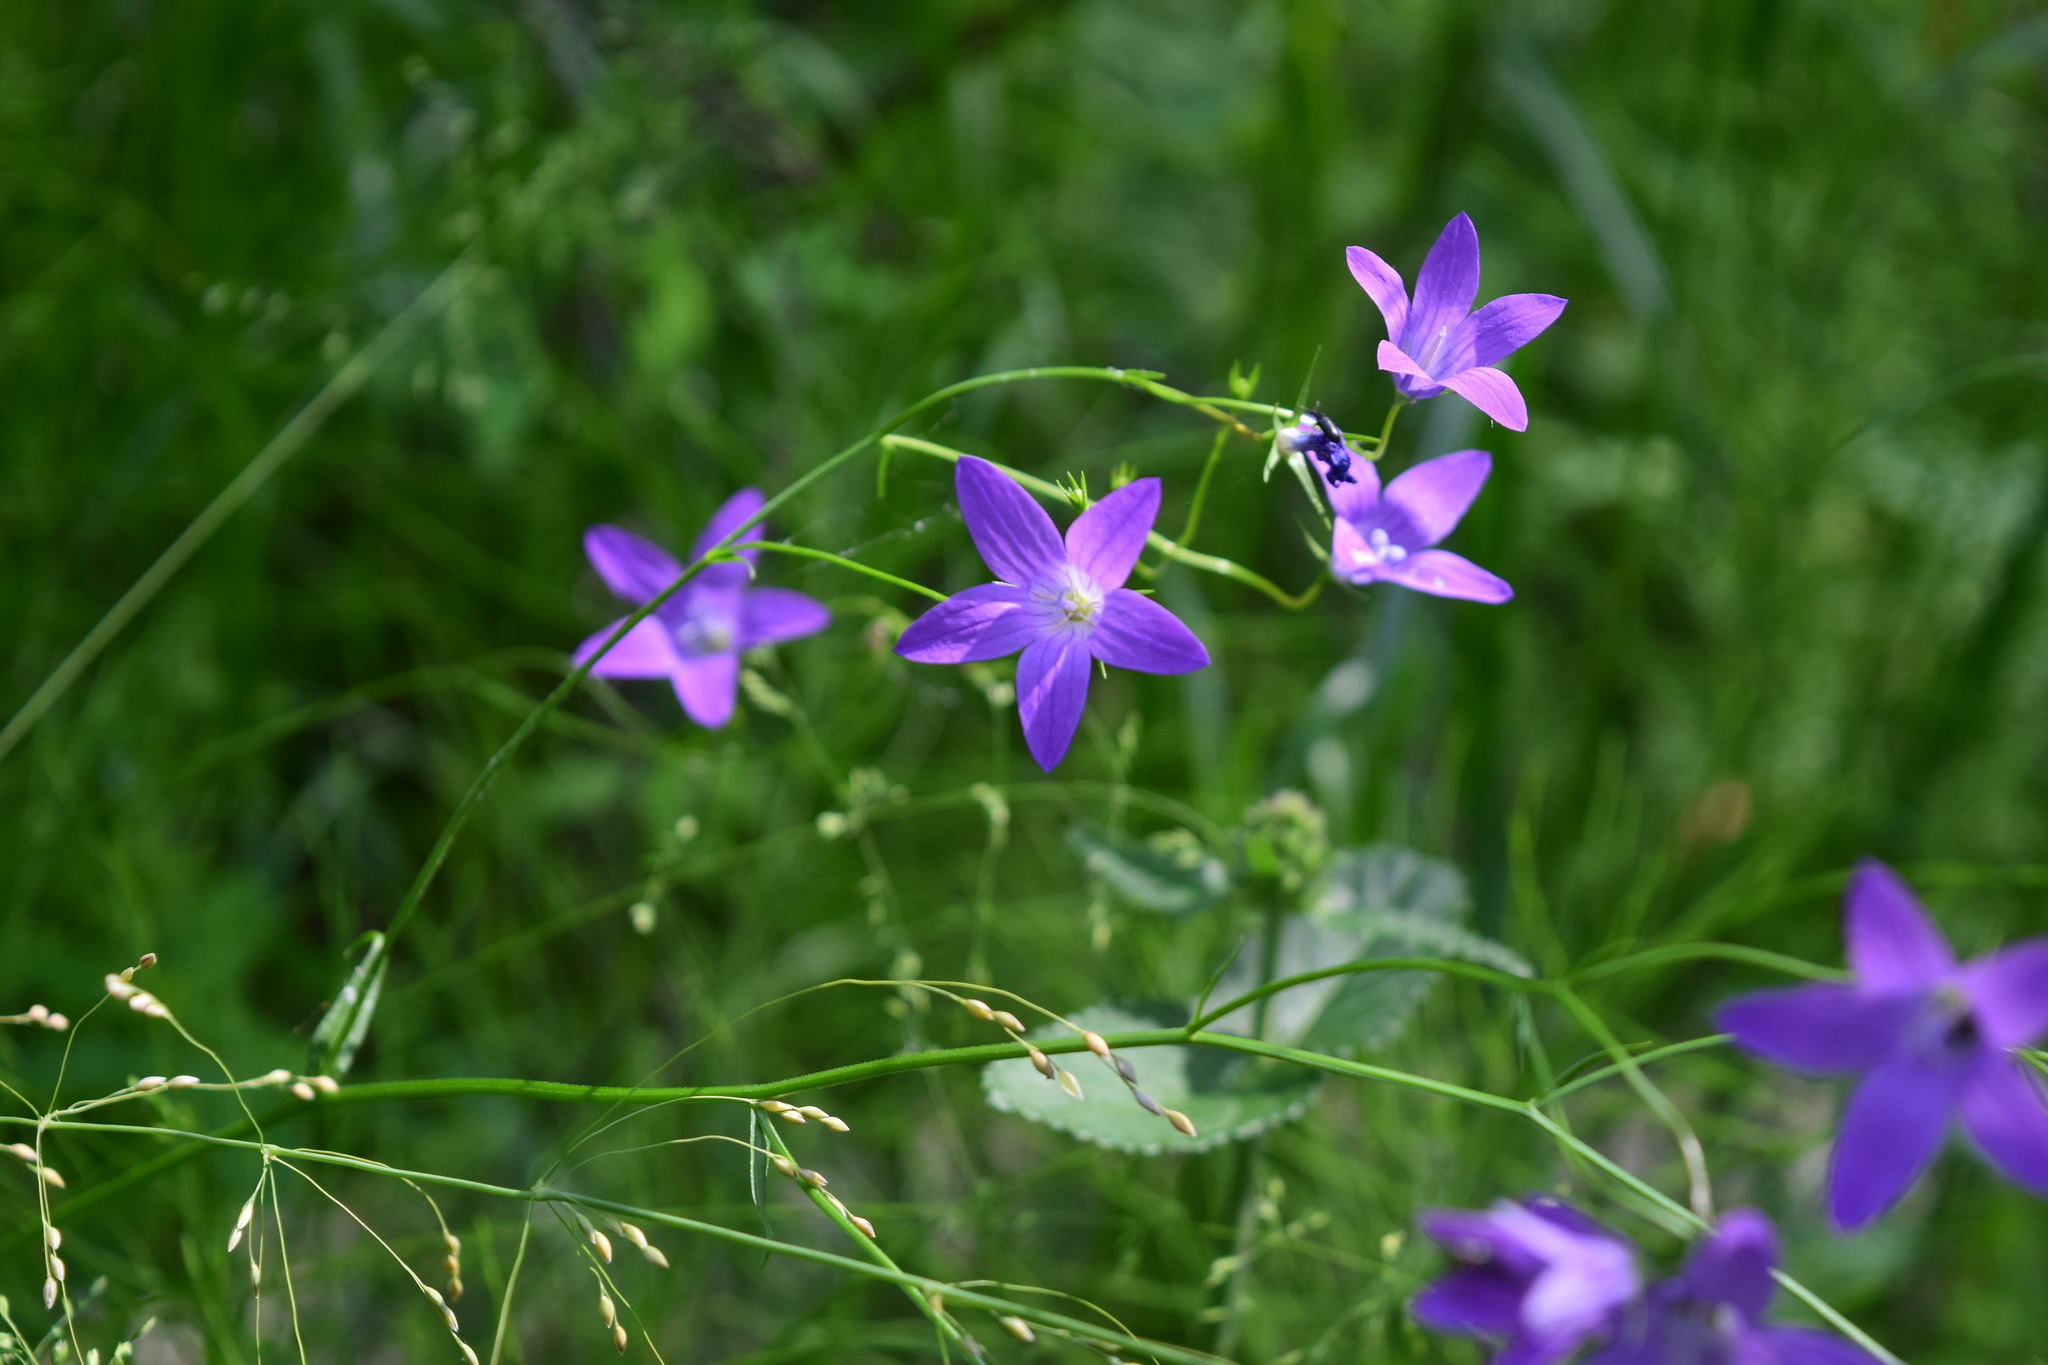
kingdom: Plantae
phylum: Tracheophyta
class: Magnoliopsida
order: Asterales
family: Campanulaceae
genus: Campanula
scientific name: Campanula patula
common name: Spreading bellflower
